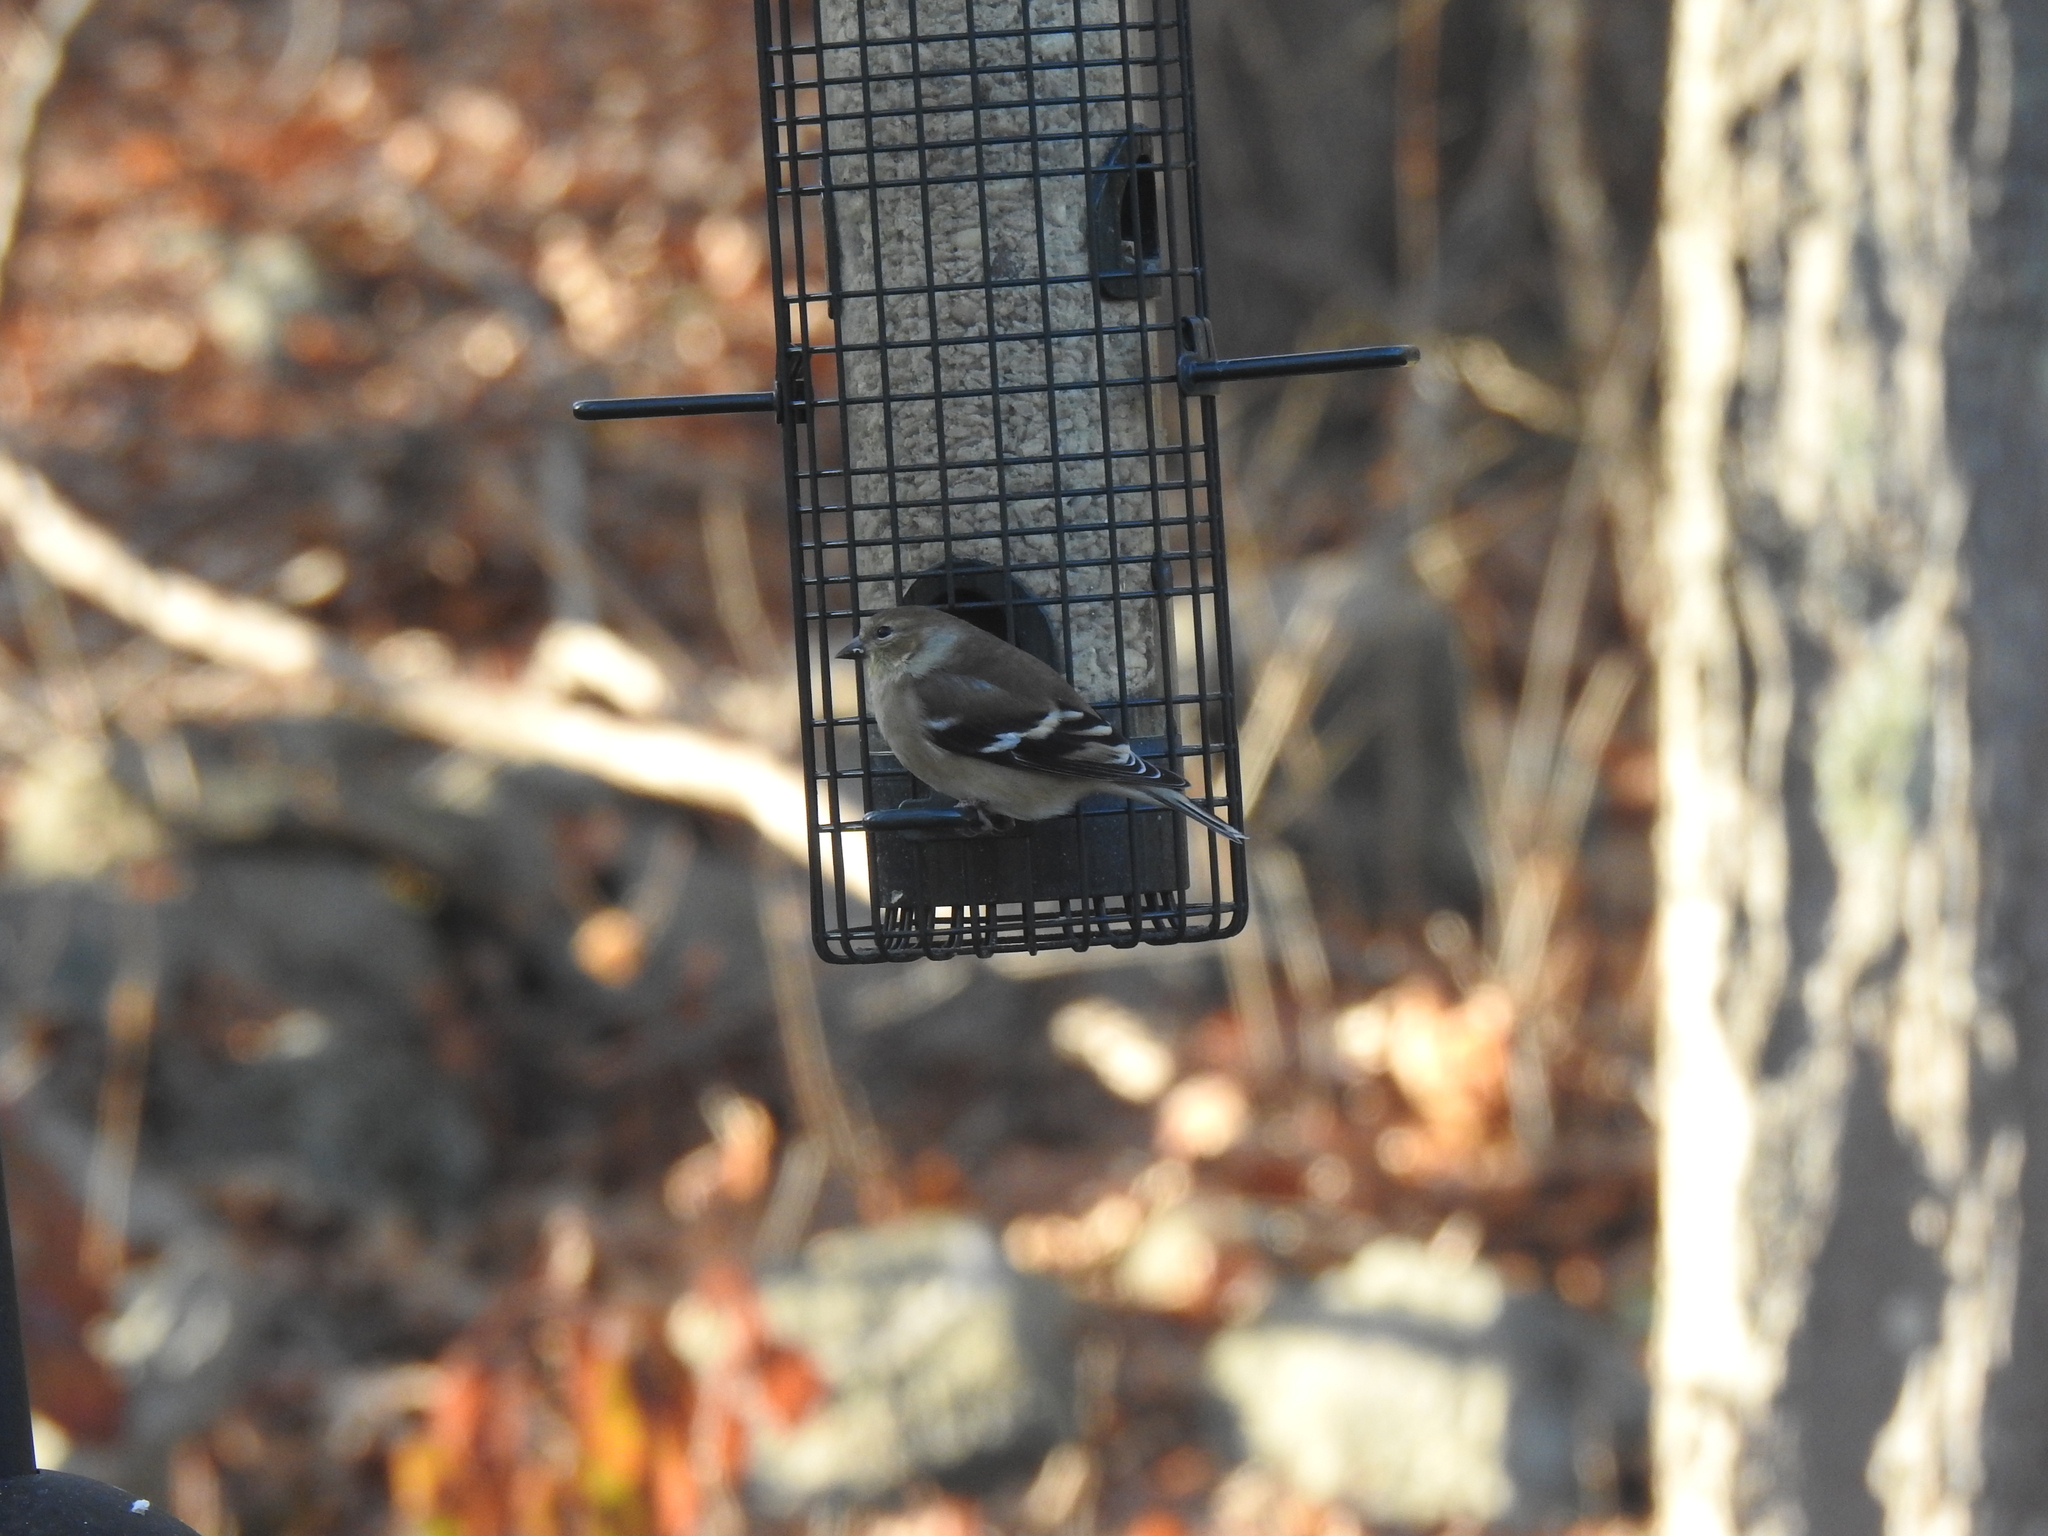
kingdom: Animalia
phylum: Chordata
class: Aves
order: Passeriformes
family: Fringillidae
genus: Spinus
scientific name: Spinus tristis
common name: American goldfinch
